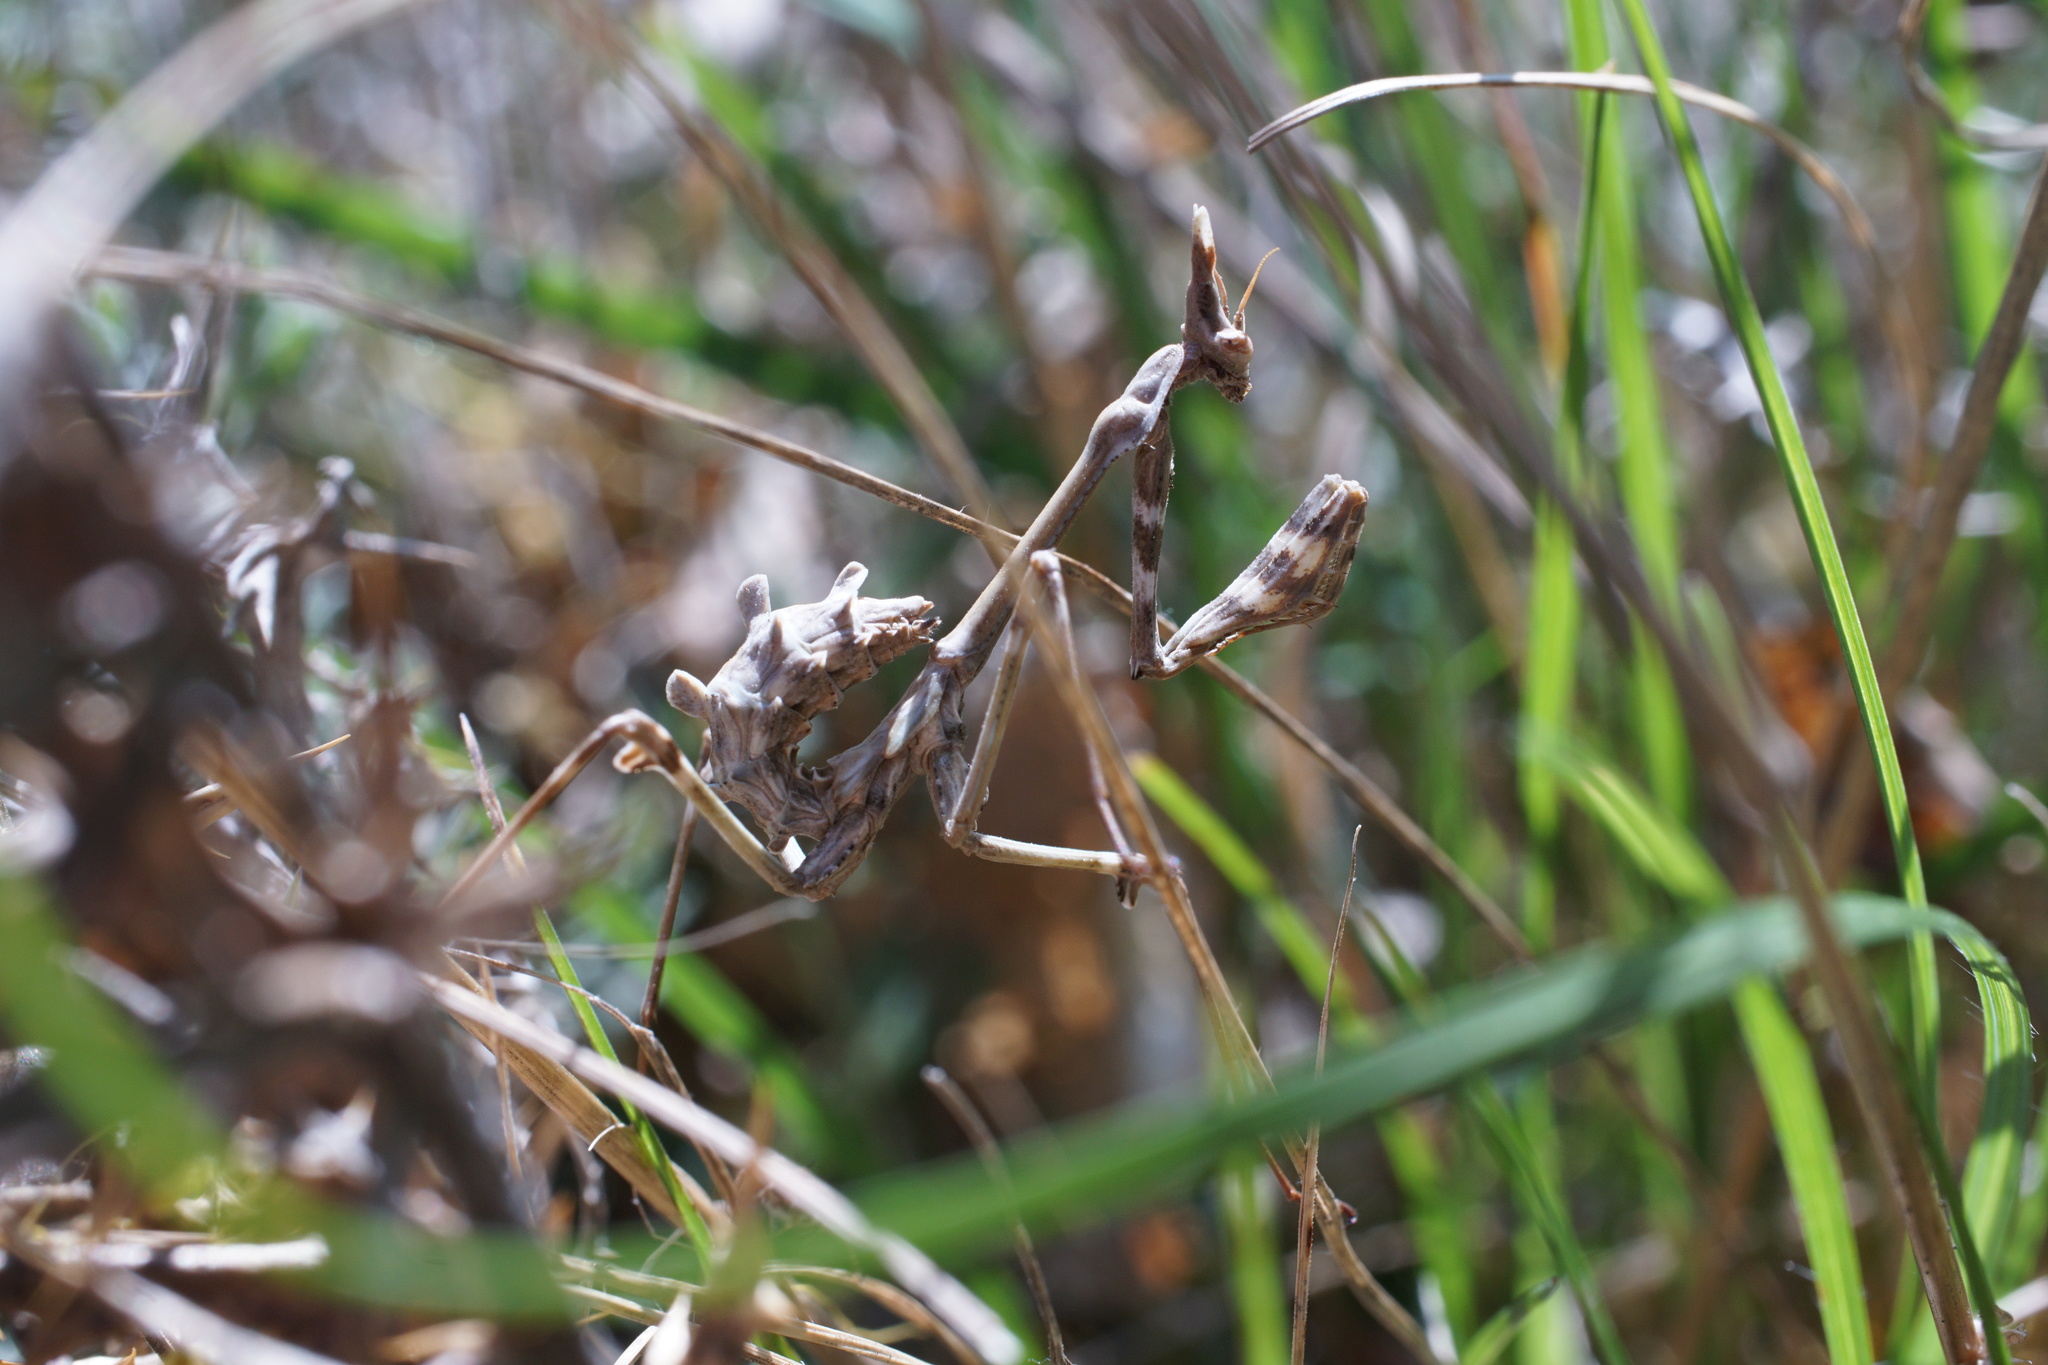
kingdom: Animalia
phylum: Arthropoda
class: Insecta
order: Mantodea
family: Empusidae
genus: Empusa
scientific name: Empusa fasciata
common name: Devil's mare
